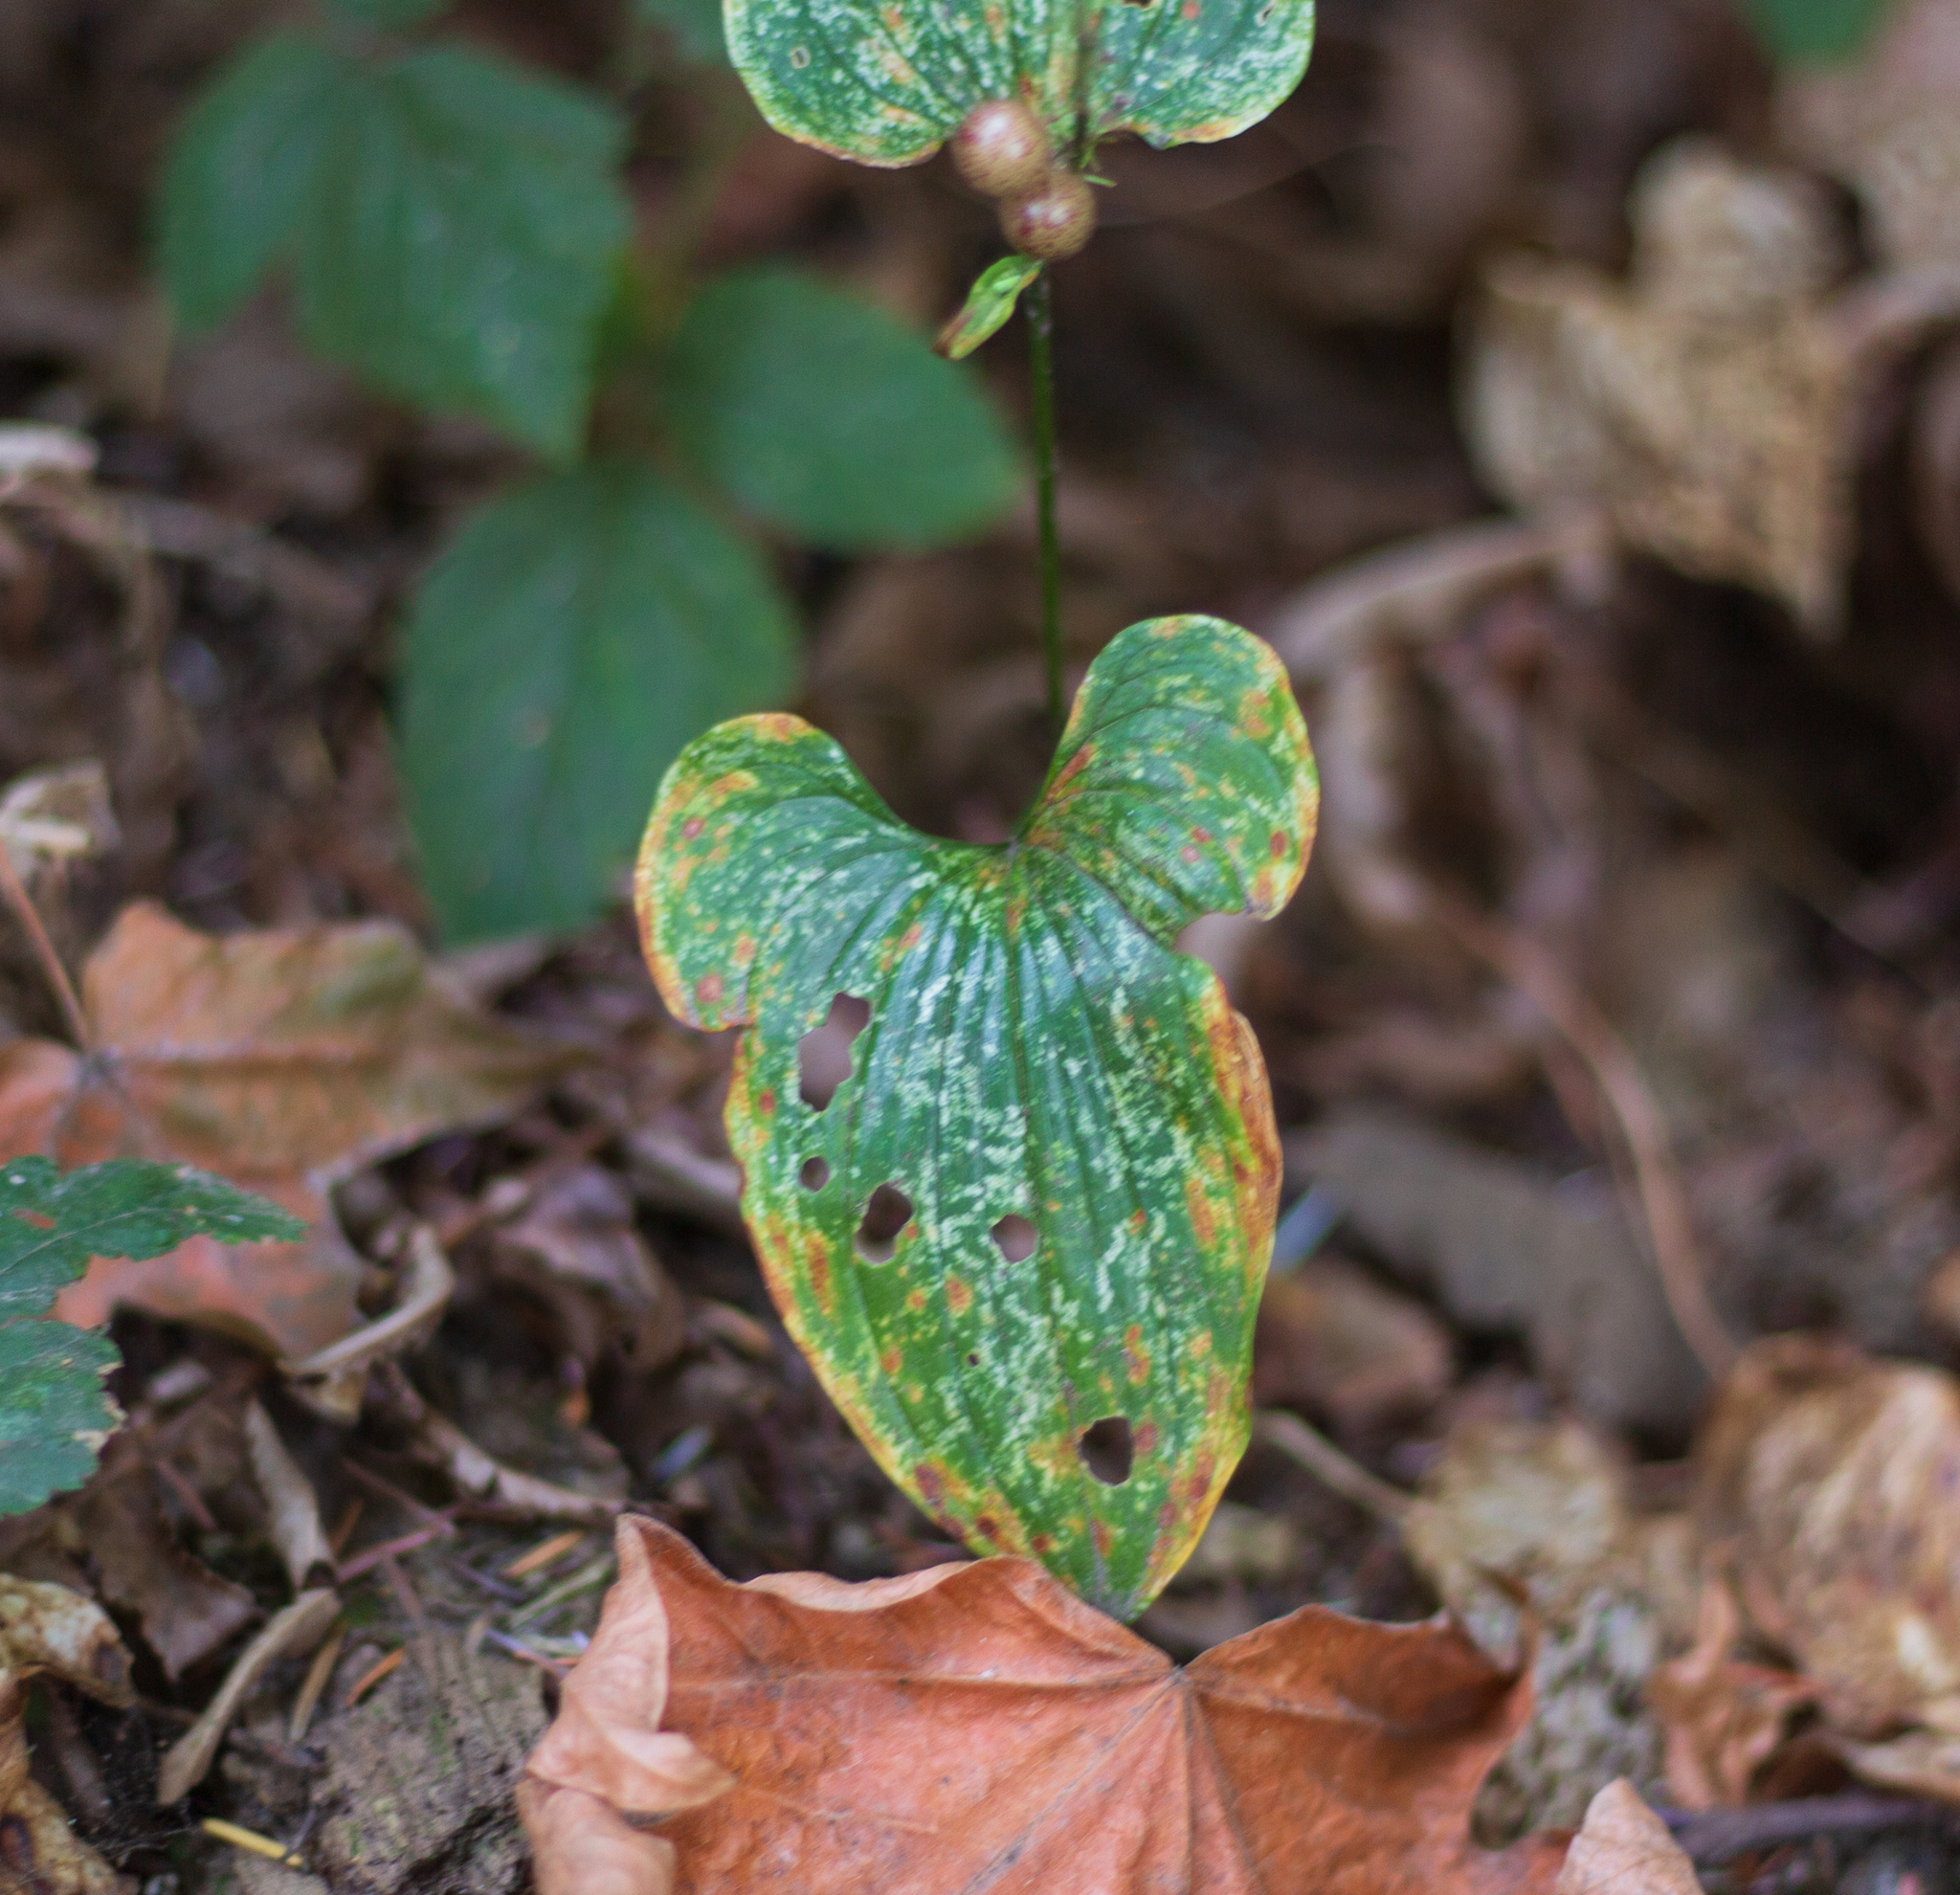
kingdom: Plantae
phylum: Tracheophyta
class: Liliopsida
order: Asparagales
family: Asparagaceae
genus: Maianthemum
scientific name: Maianthemum dilatatum
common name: False lily-of-the-valley
